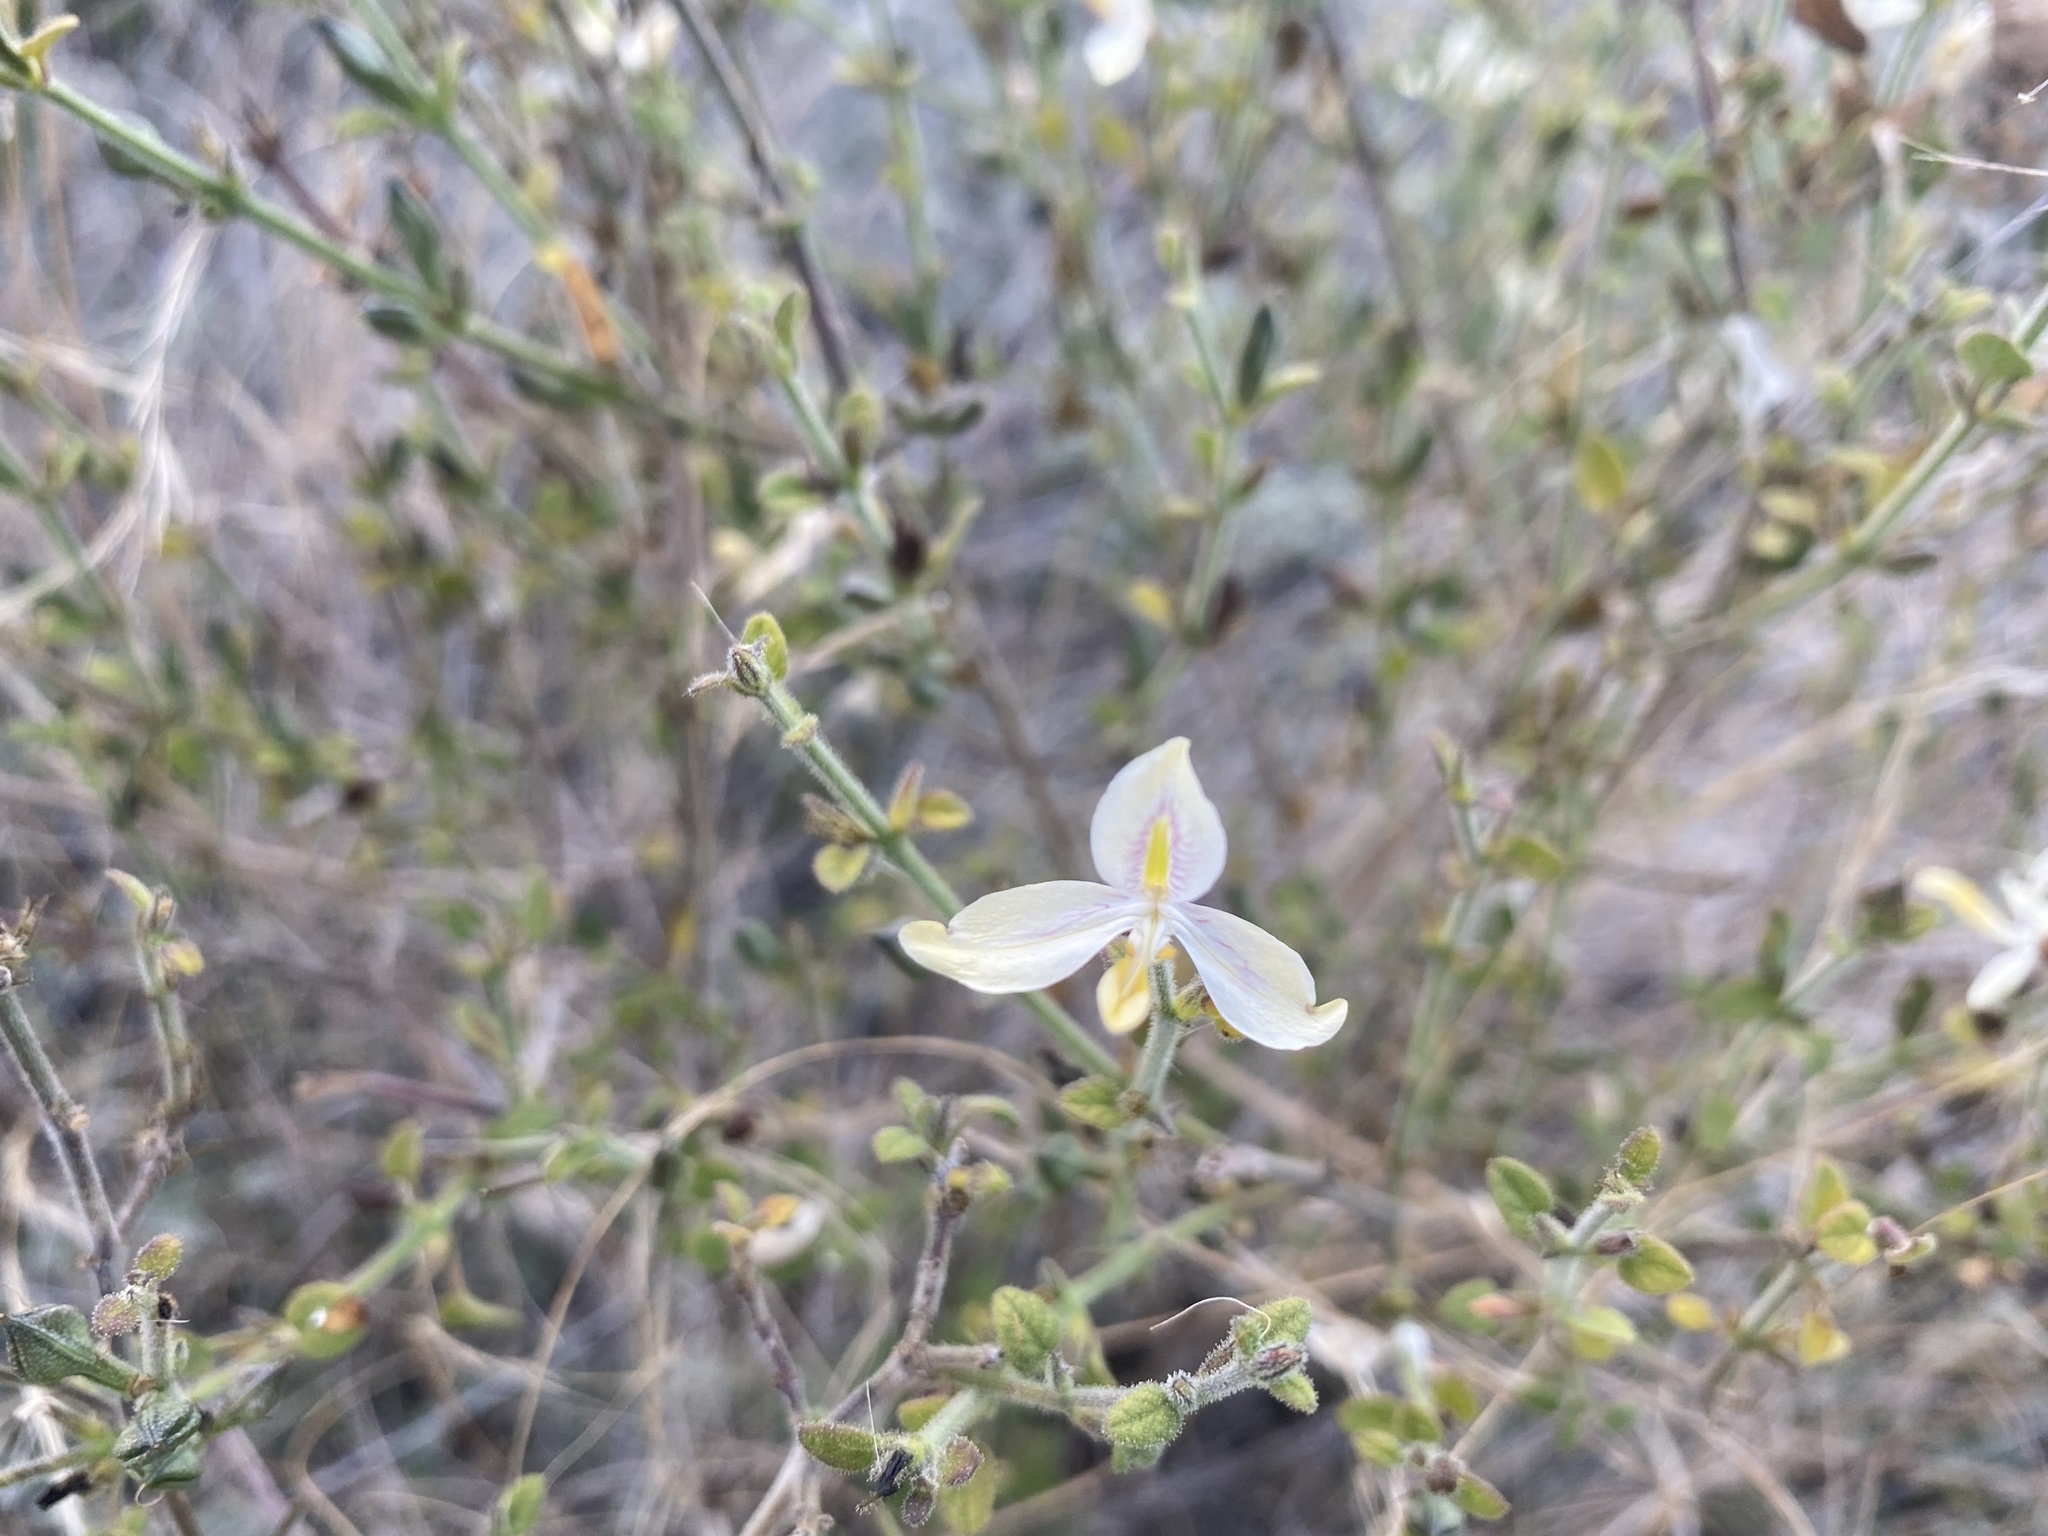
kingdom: Plantae
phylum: Tracheophyta
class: Magnoliopsida
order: Lamiales
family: Acanthaceae
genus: Carlowrightia
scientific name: Carlowrightia neesiana
